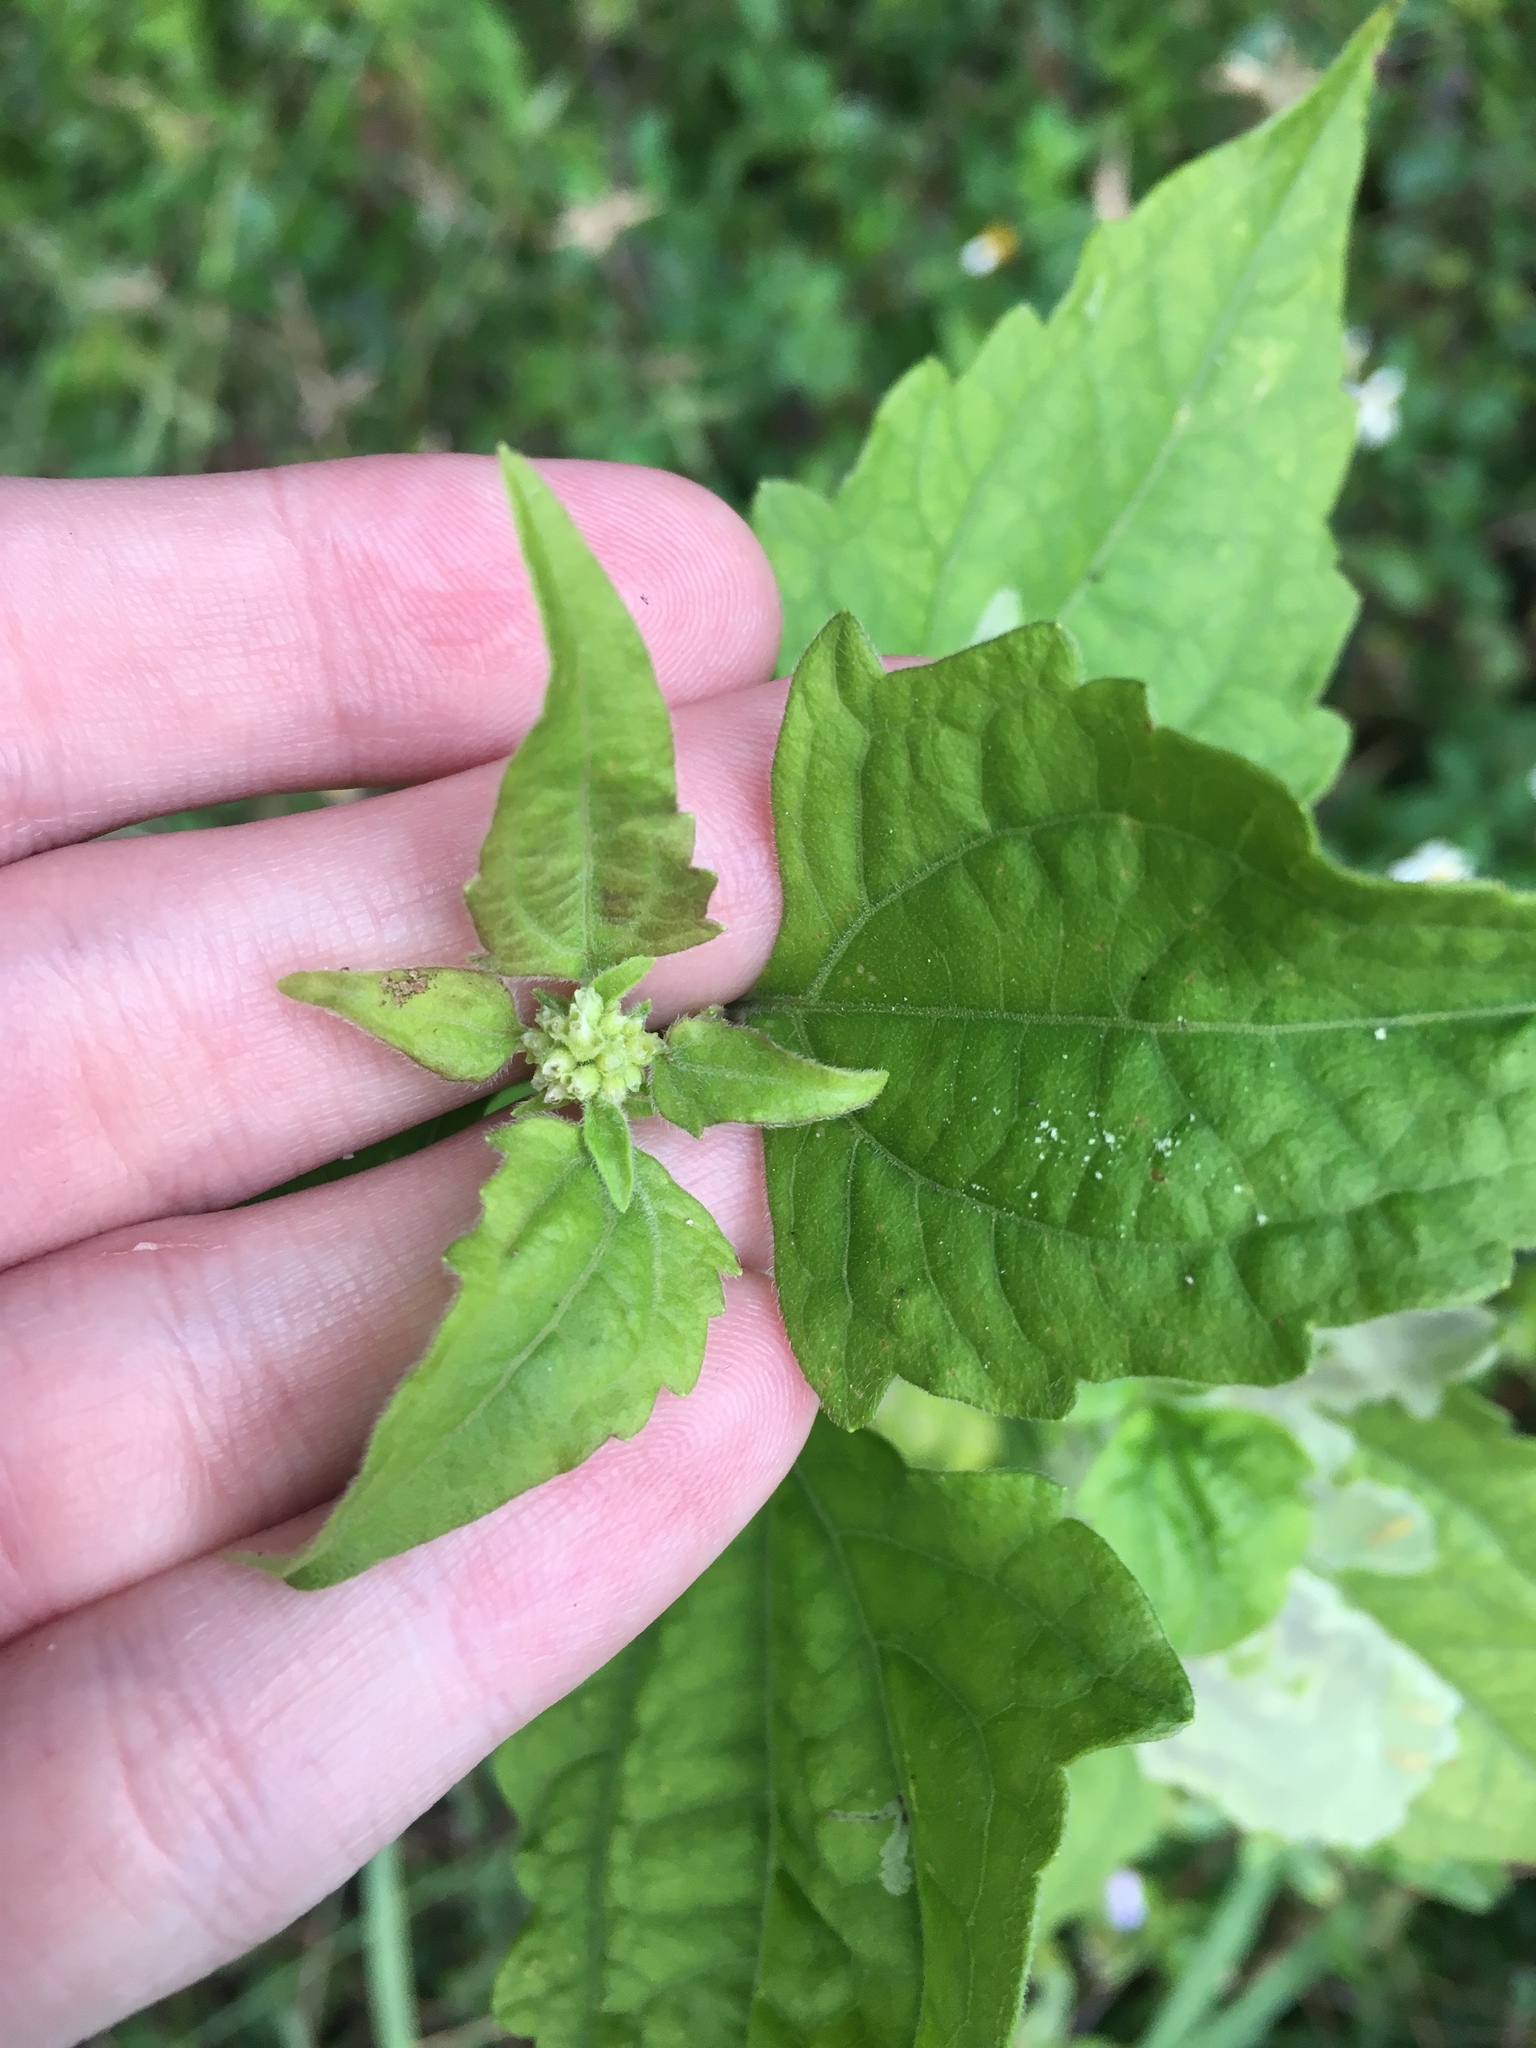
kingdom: Plantae
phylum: Tracheophyta
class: Magnoliopsida
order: Asterales
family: Asteraceae
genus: Chromolaena
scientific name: Chromolaena odorata
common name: Siamweed
